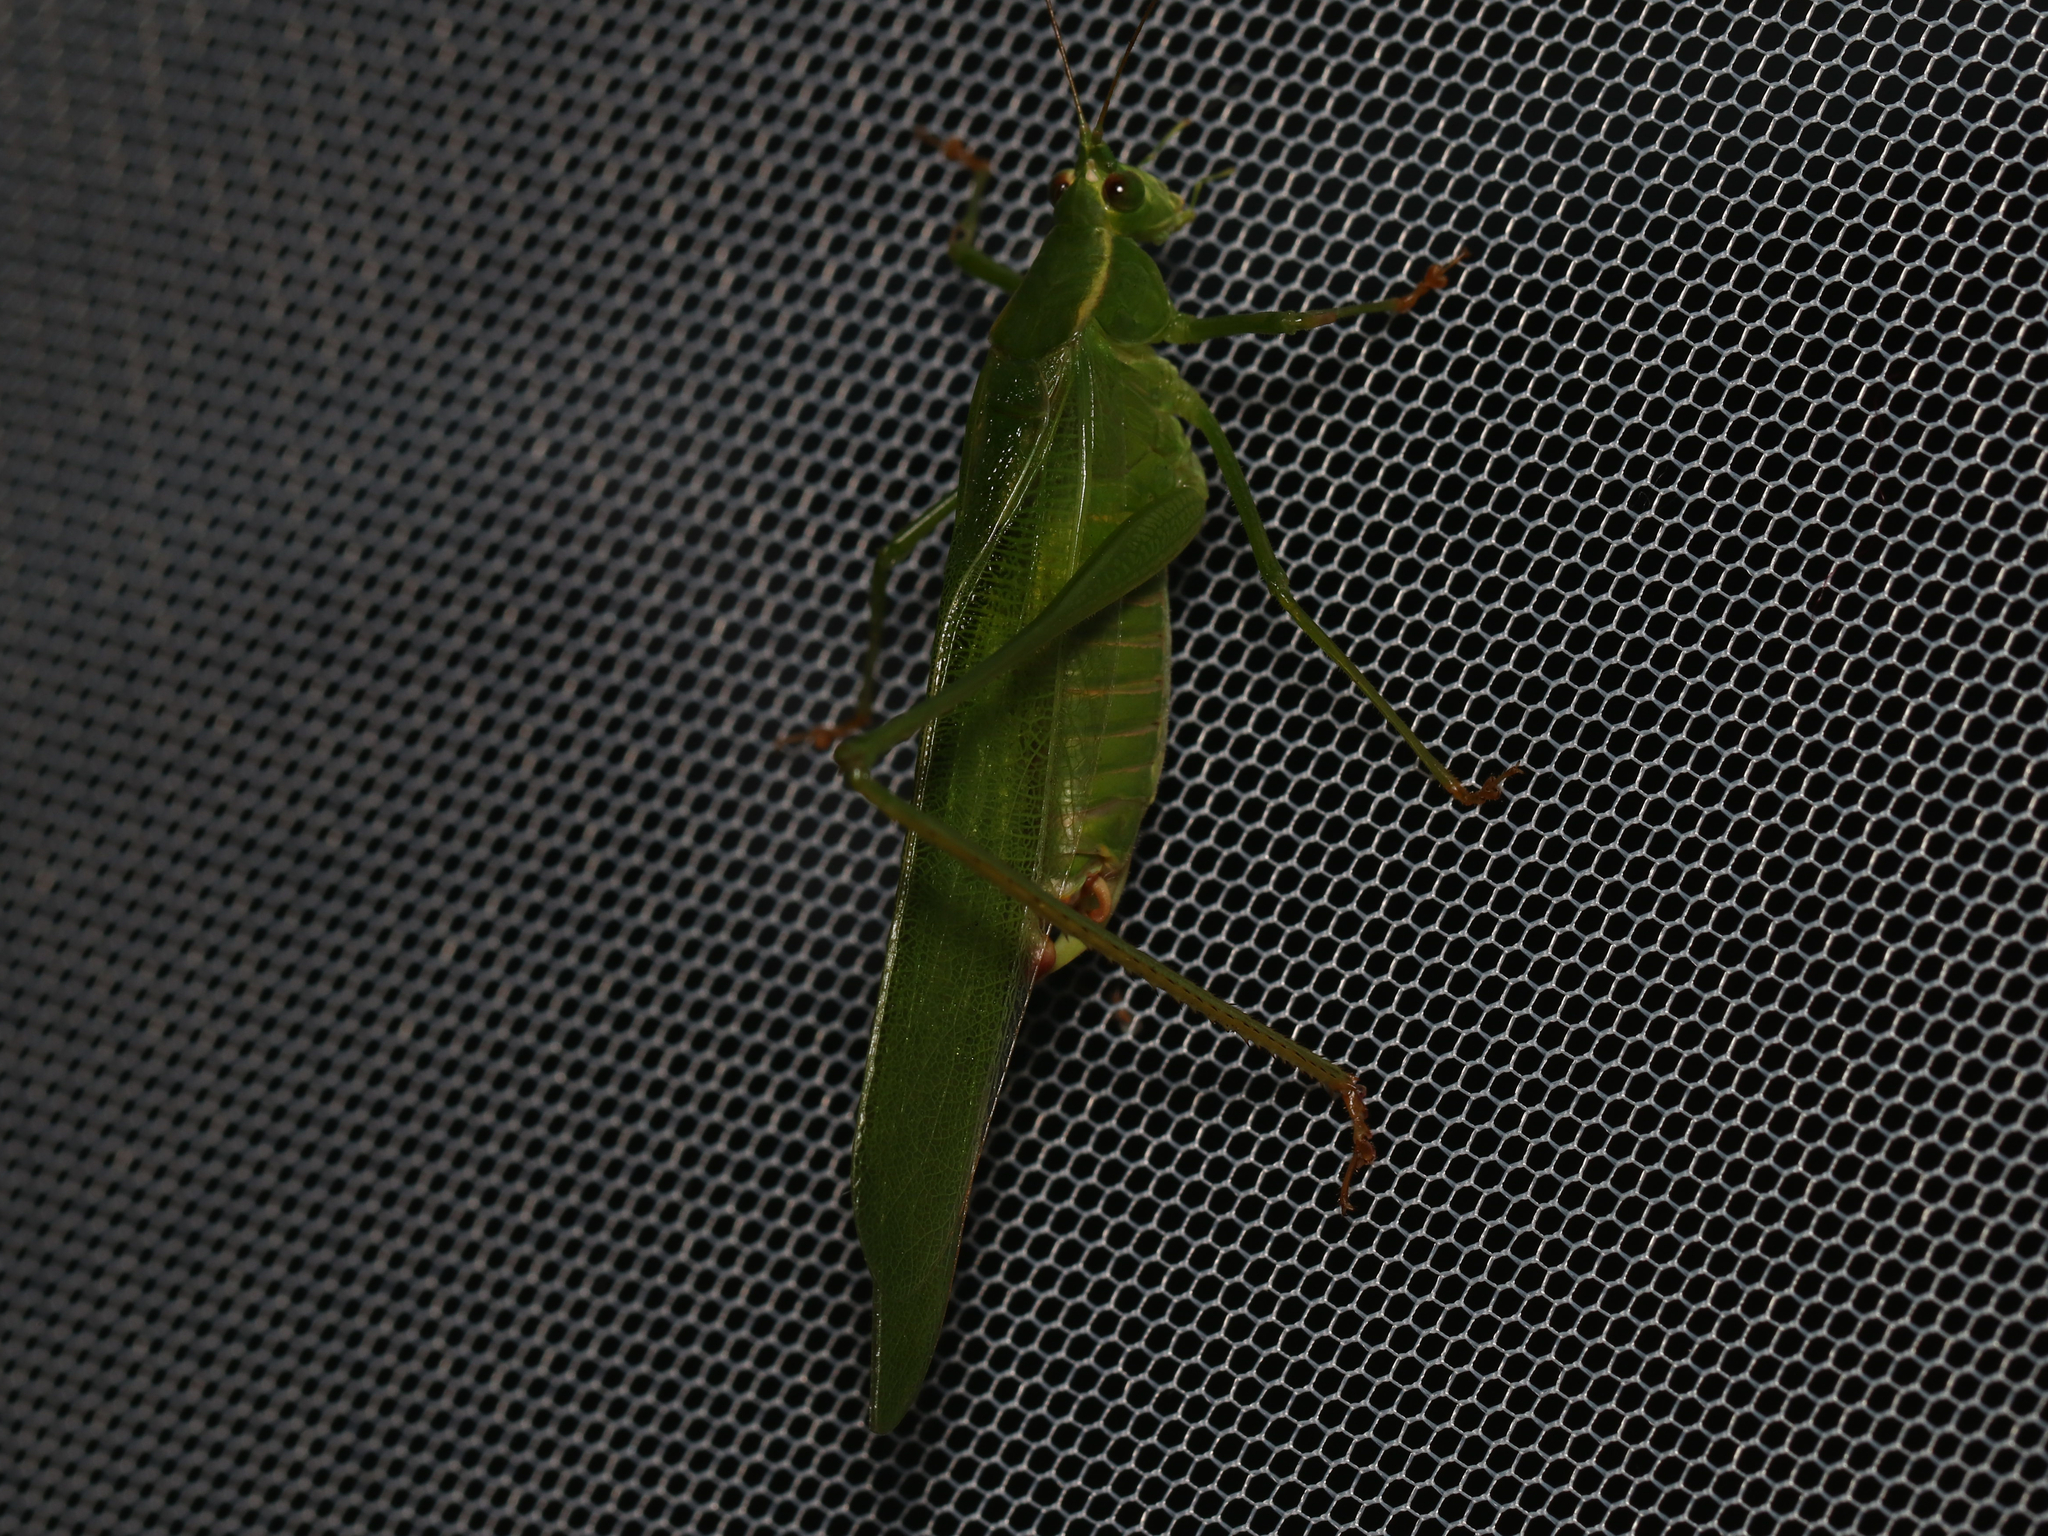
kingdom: Animalia
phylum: Arthropoda
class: Insecta
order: Orthoptera
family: Tettigoniidae
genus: Scudderia
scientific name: Scudderia furcata
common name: Fork-tailed bush katydid
